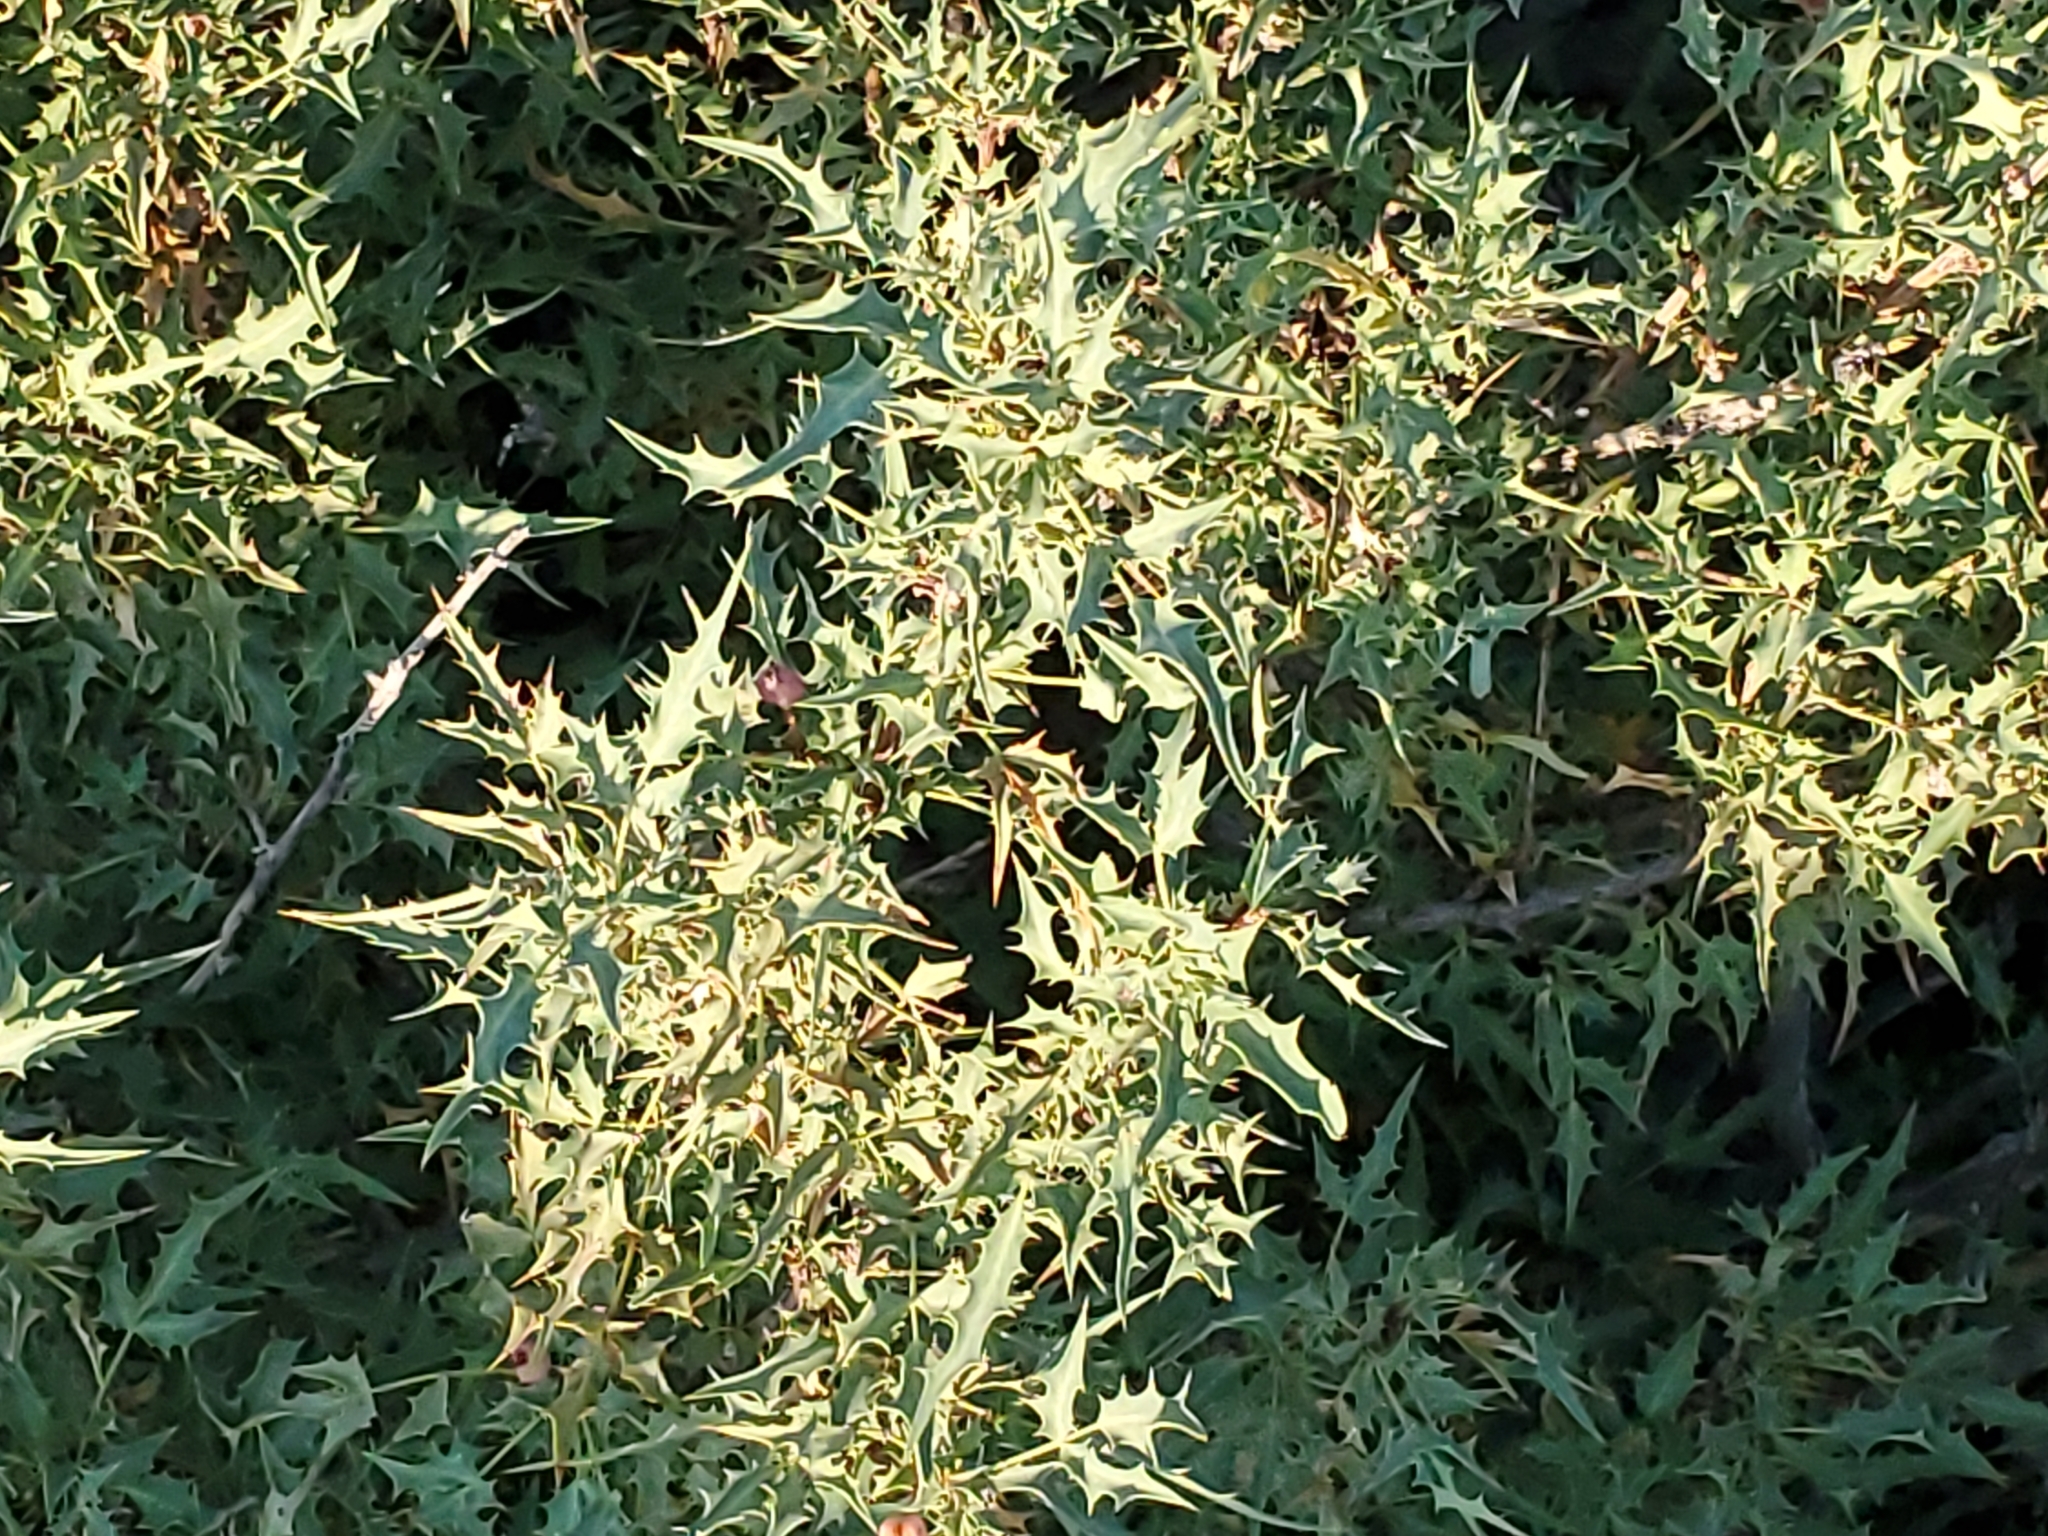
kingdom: Plantae
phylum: Tracheophyta
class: Magnoliopsida
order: Ranunculales
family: Berberidaceae
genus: Alloberberis
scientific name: Alloberberis haematocarpa
